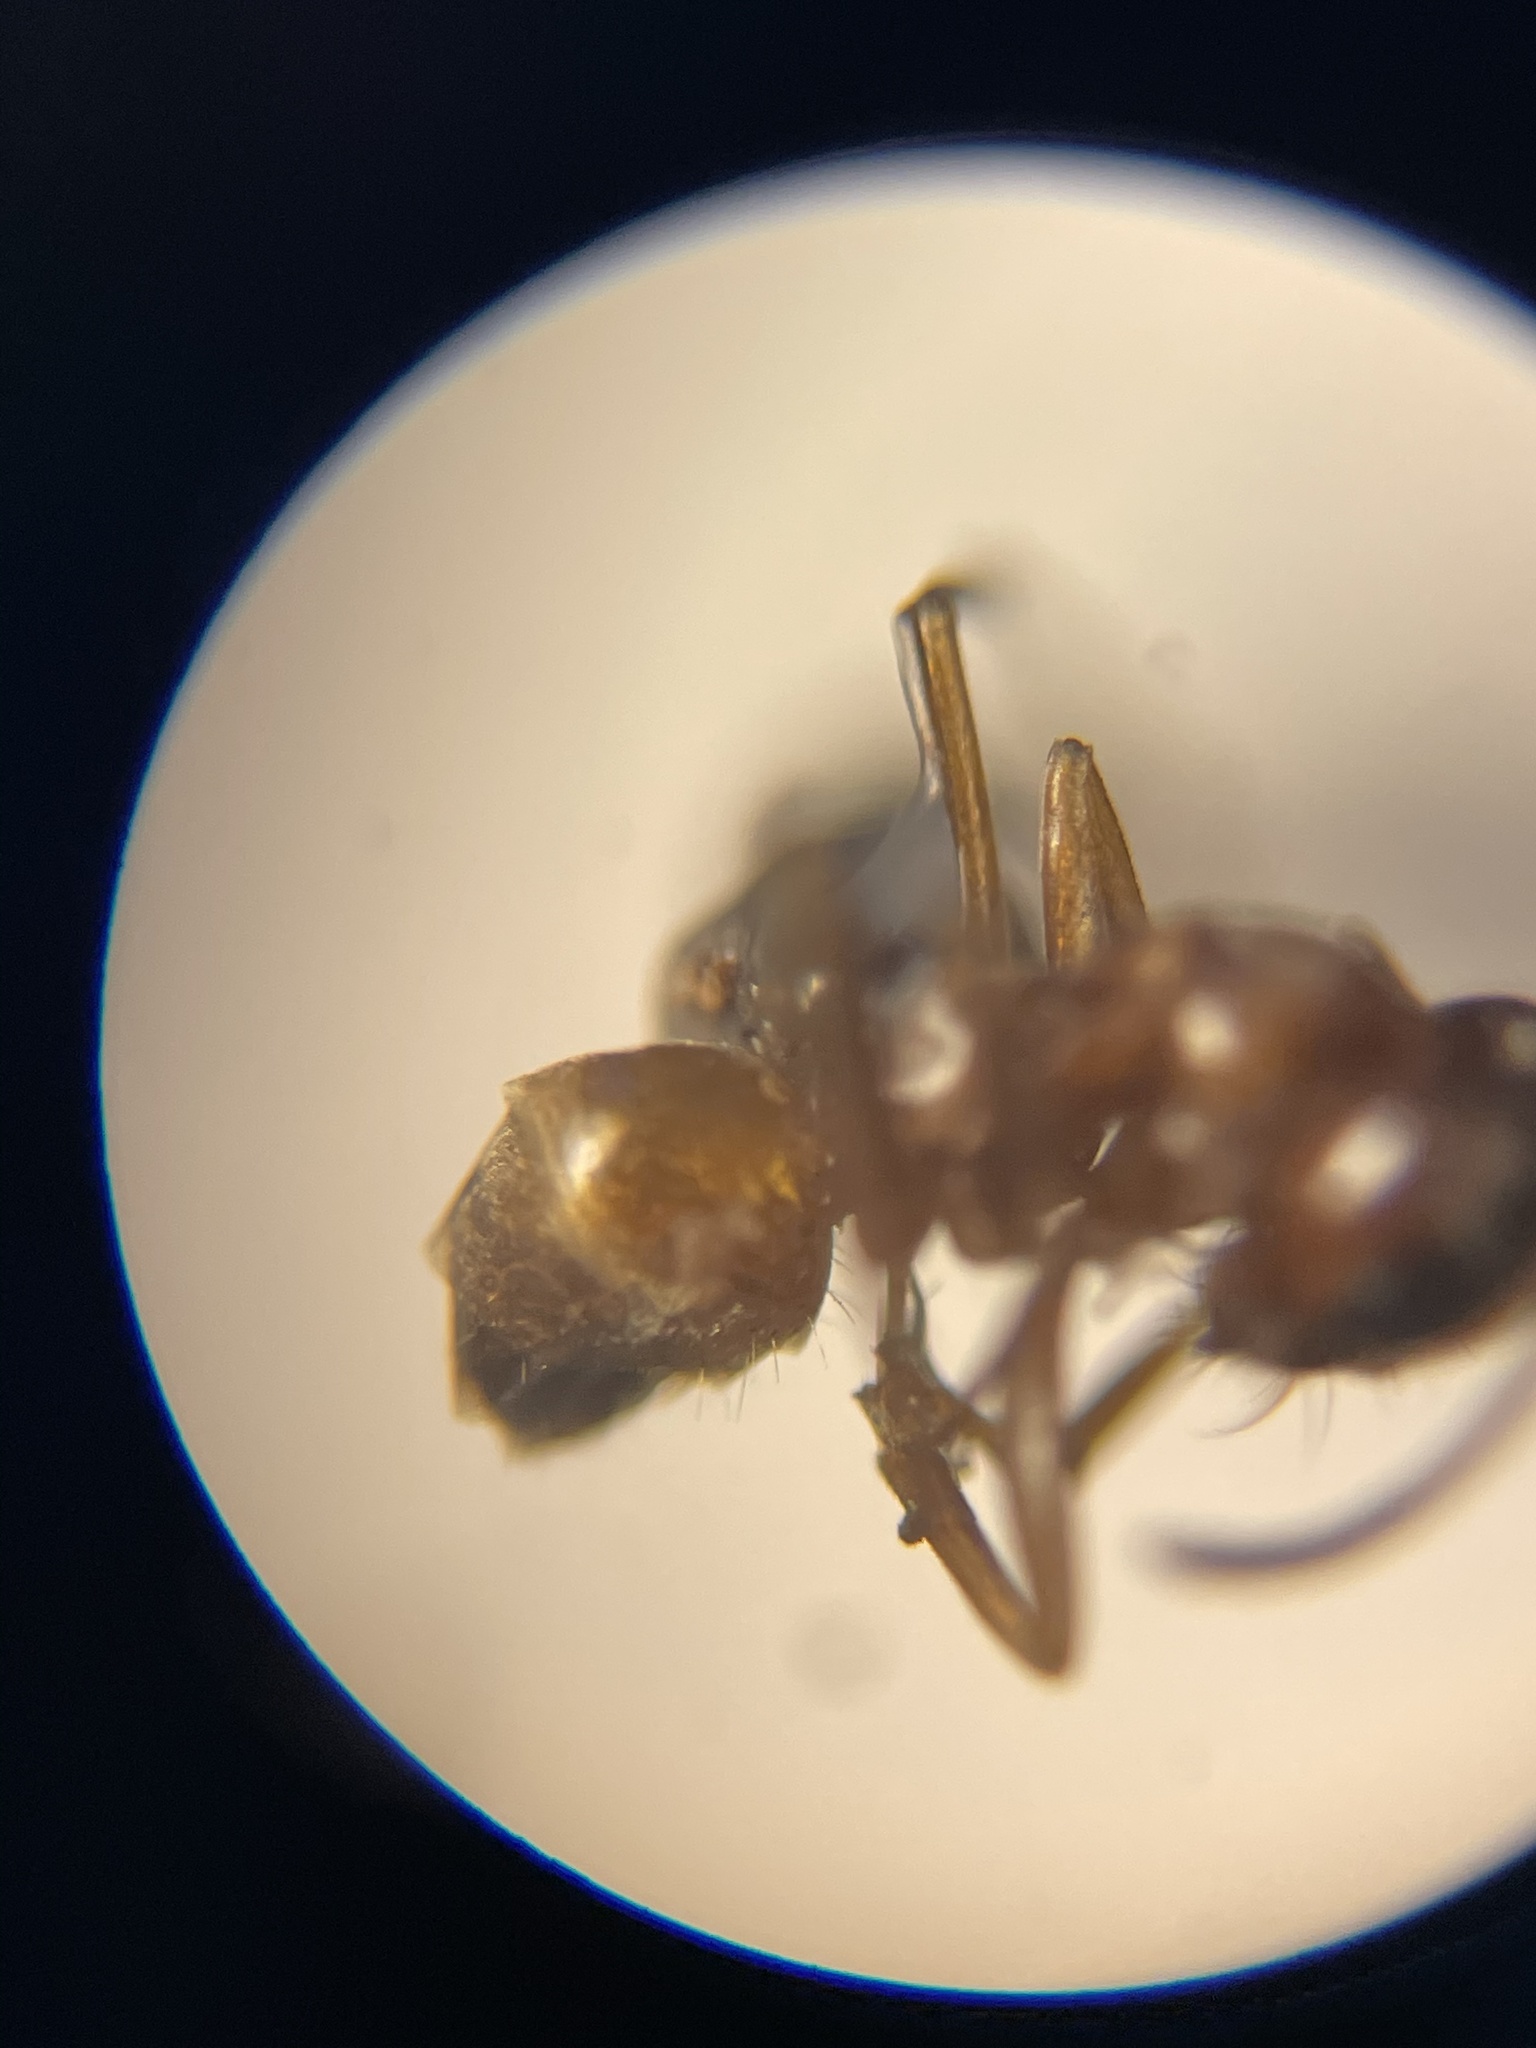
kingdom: Animalia
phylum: Arthropoda
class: Insecta
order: Hymenoptera
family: Formicidae
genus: Dorymyrmex
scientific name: Dorymyrmex flavus
